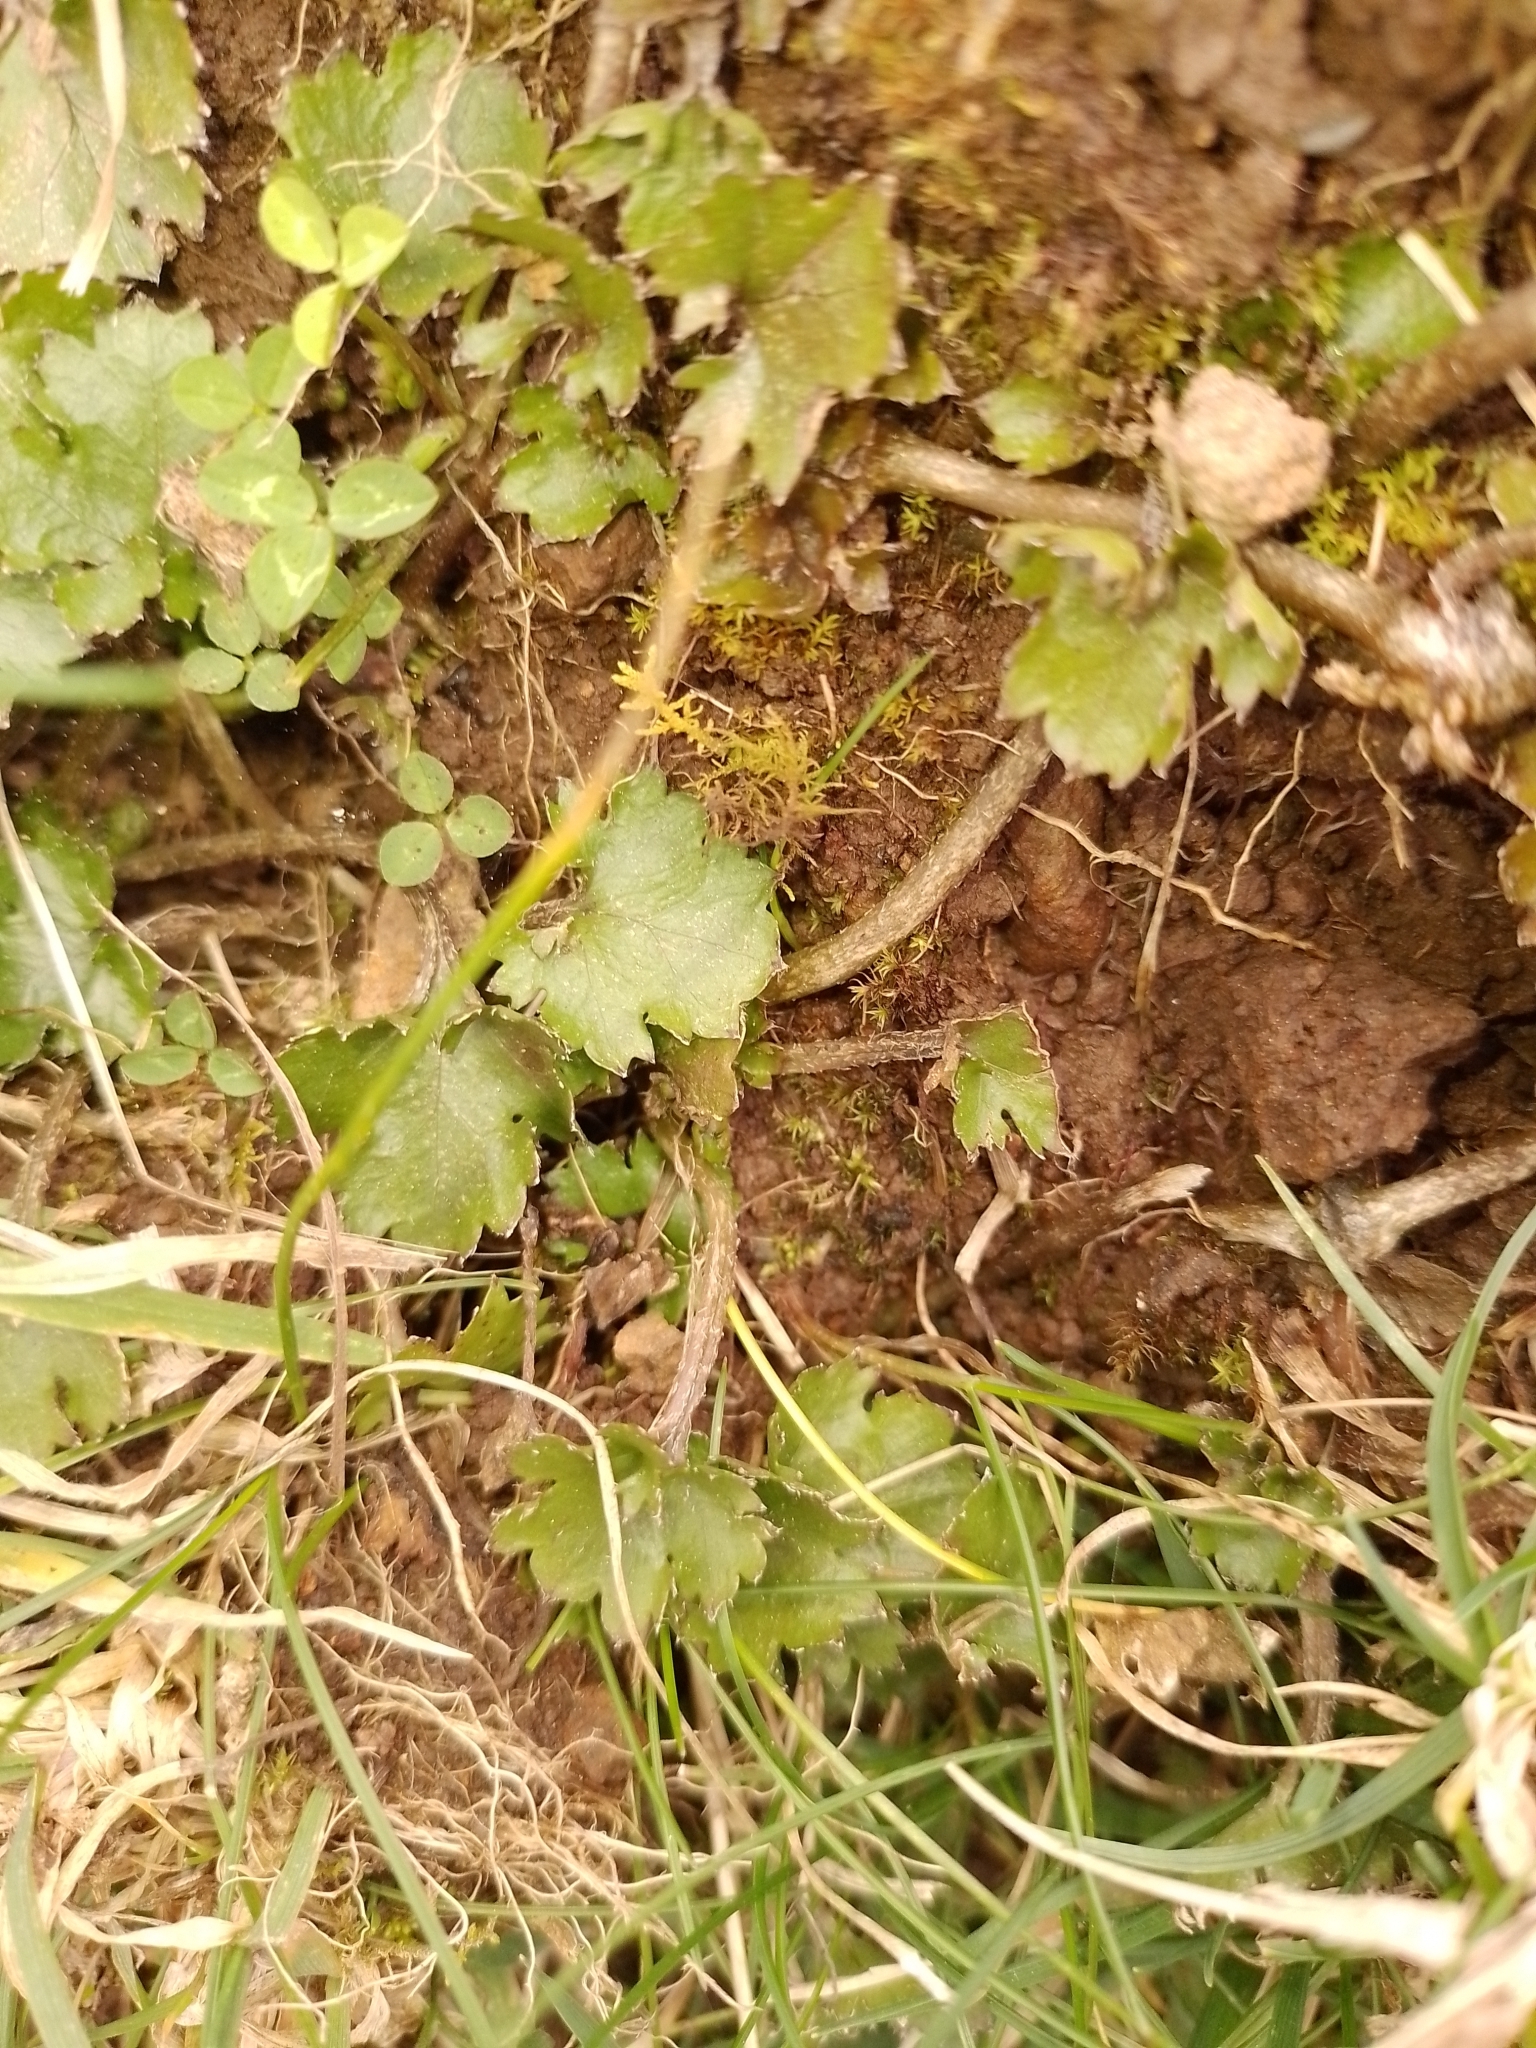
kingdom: Plantae
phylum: Tracheophyta
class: Magnoliopsida
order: Gunnerales
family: Gunneraceae
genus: Gunnera
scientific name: Gunnera monoica
